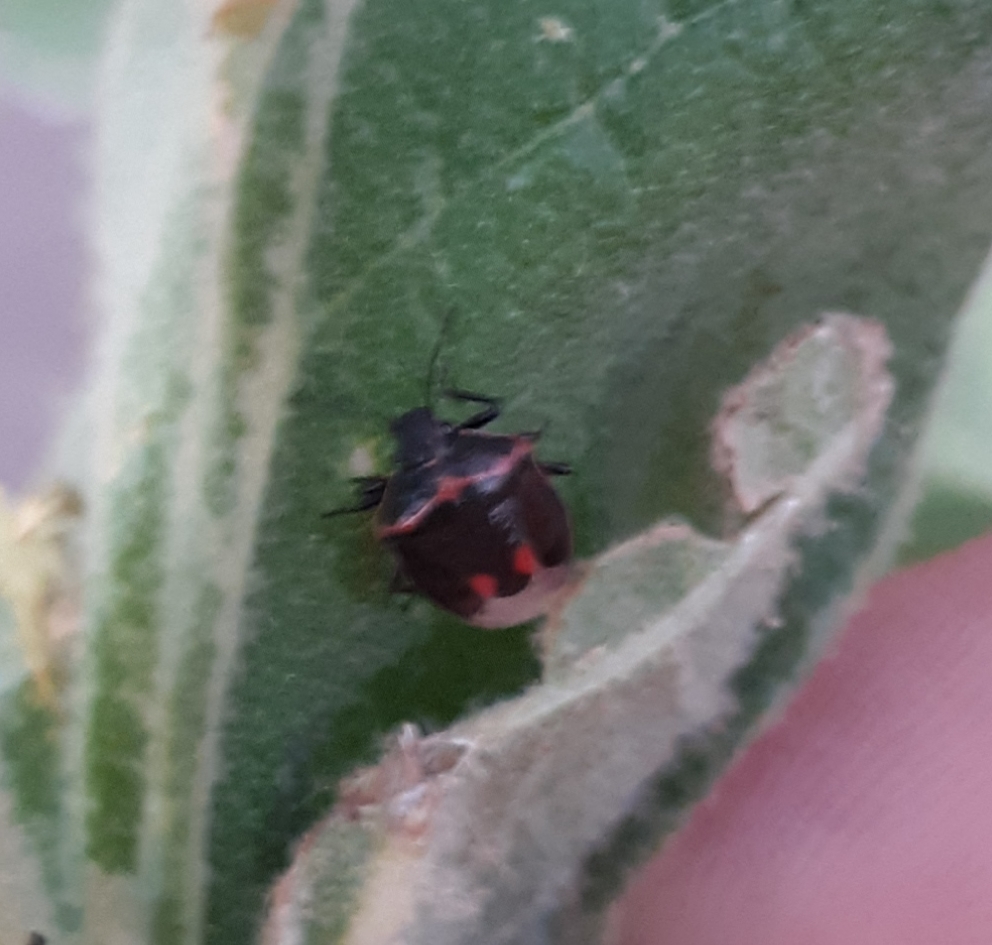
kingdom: Animalia
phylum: Arthropoda
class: Insecta
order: Hemiptera
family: Pentatomidae
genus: Cosmopepla
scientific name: Cosmopepla lintneriana
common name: Twice-stabbed stink bug
